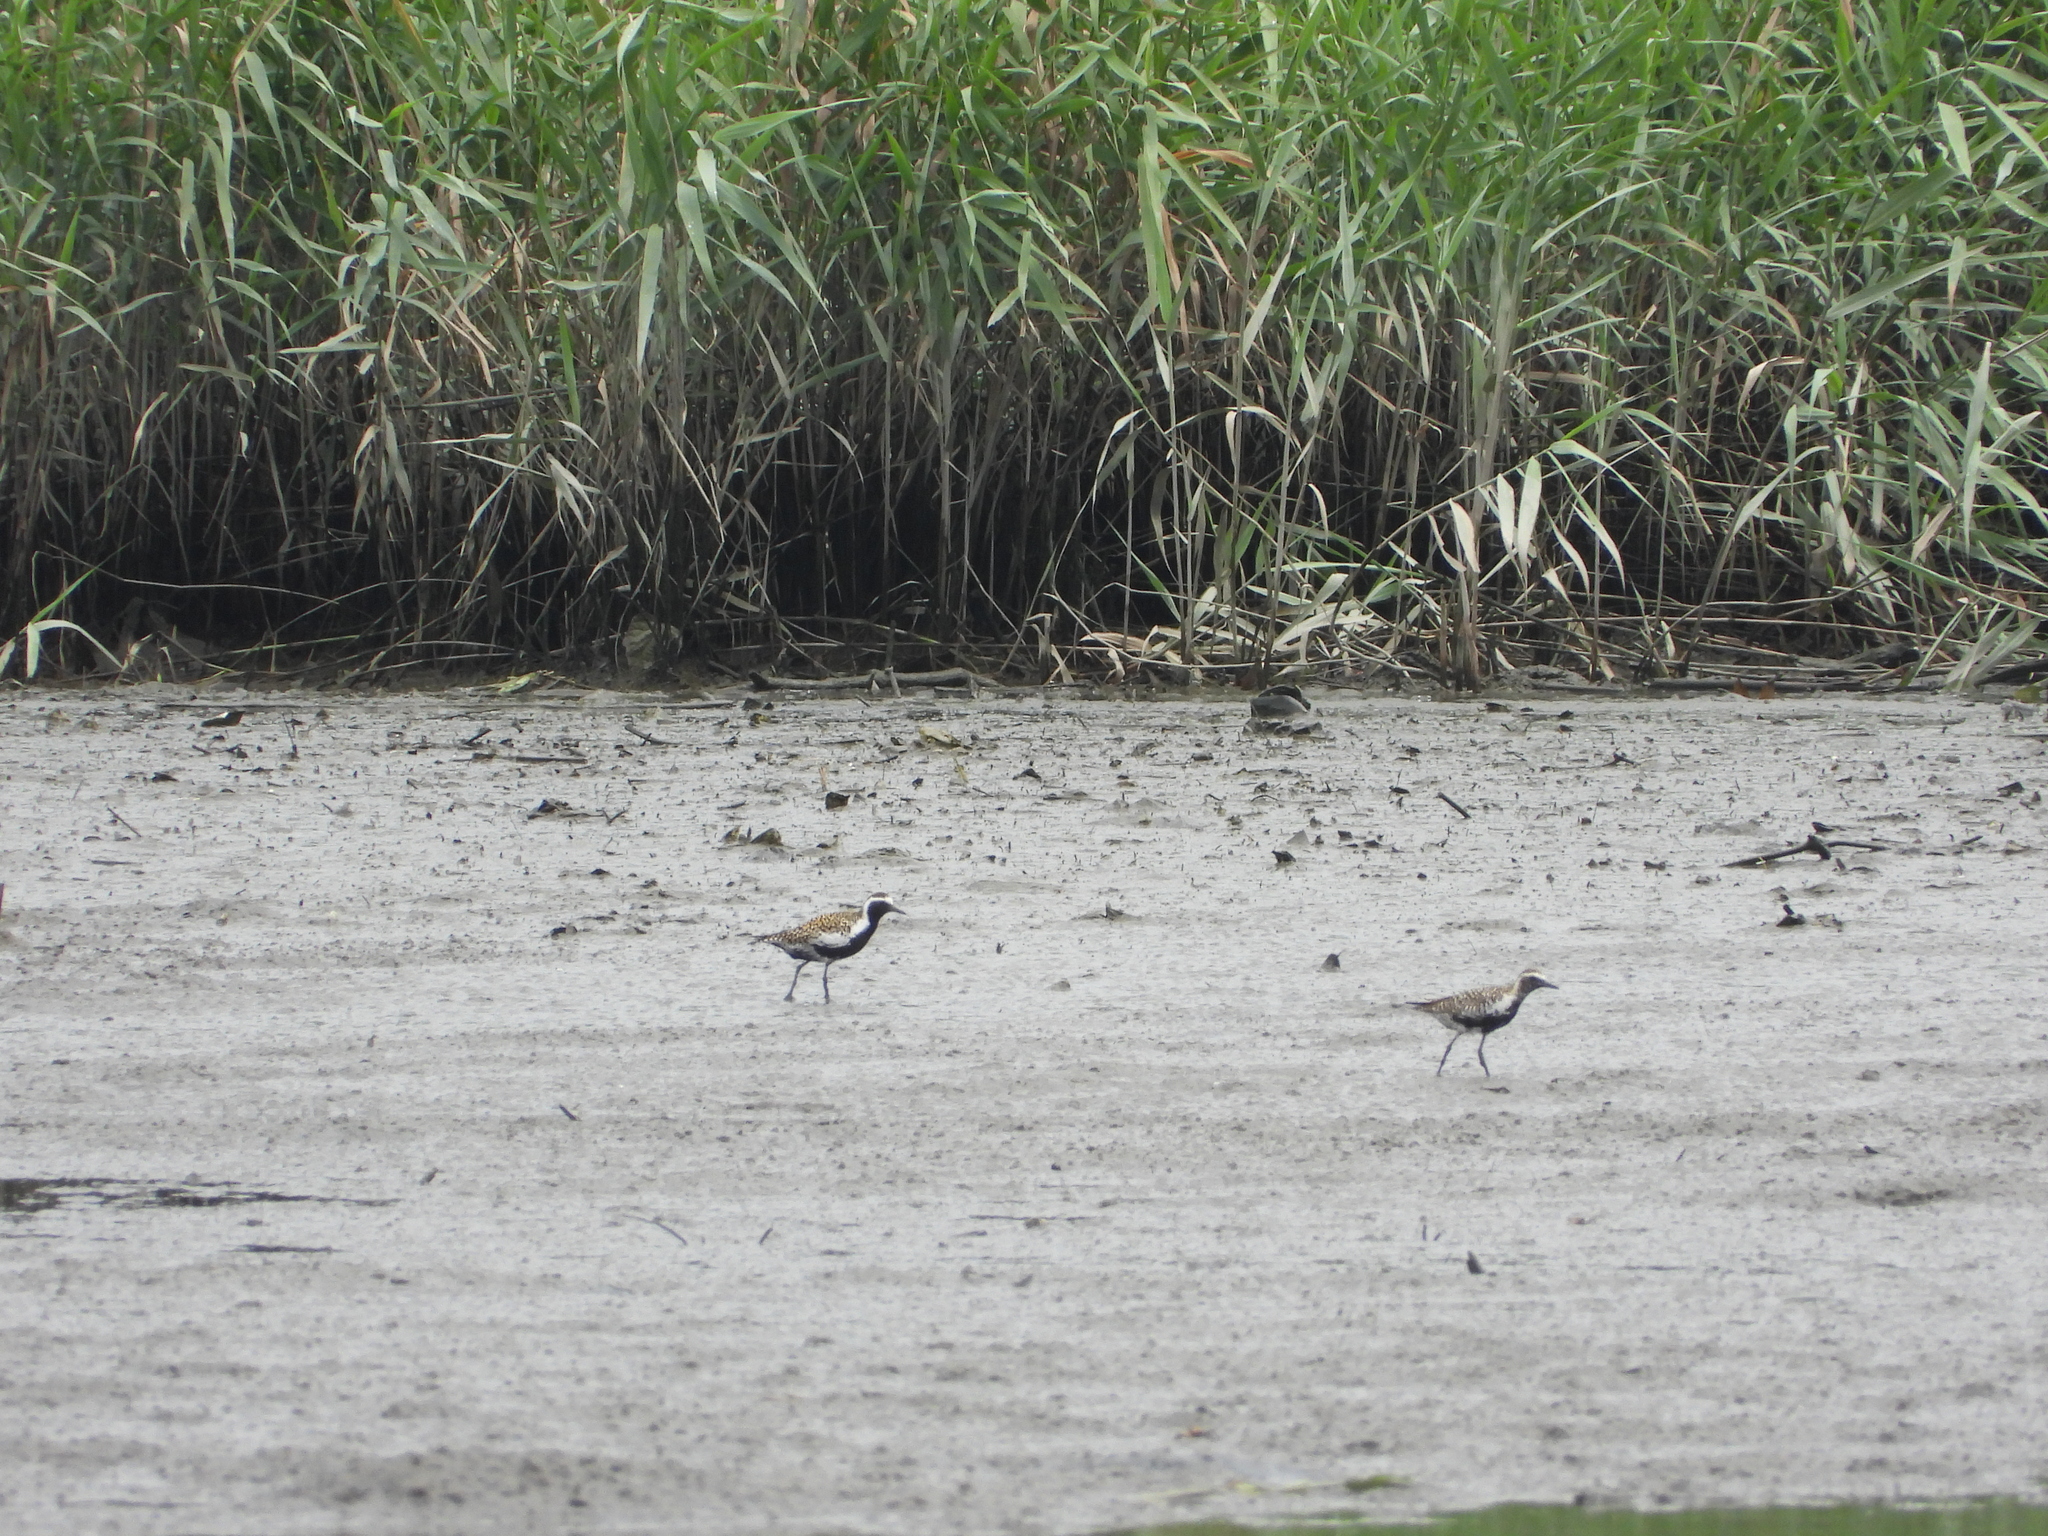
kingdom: Animalia
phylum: Chordata
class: Aves
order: Charadriiformes
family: Charadriidae
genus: Pluvialis
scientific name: Pluvialis fulva
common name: Pacific golden plover
